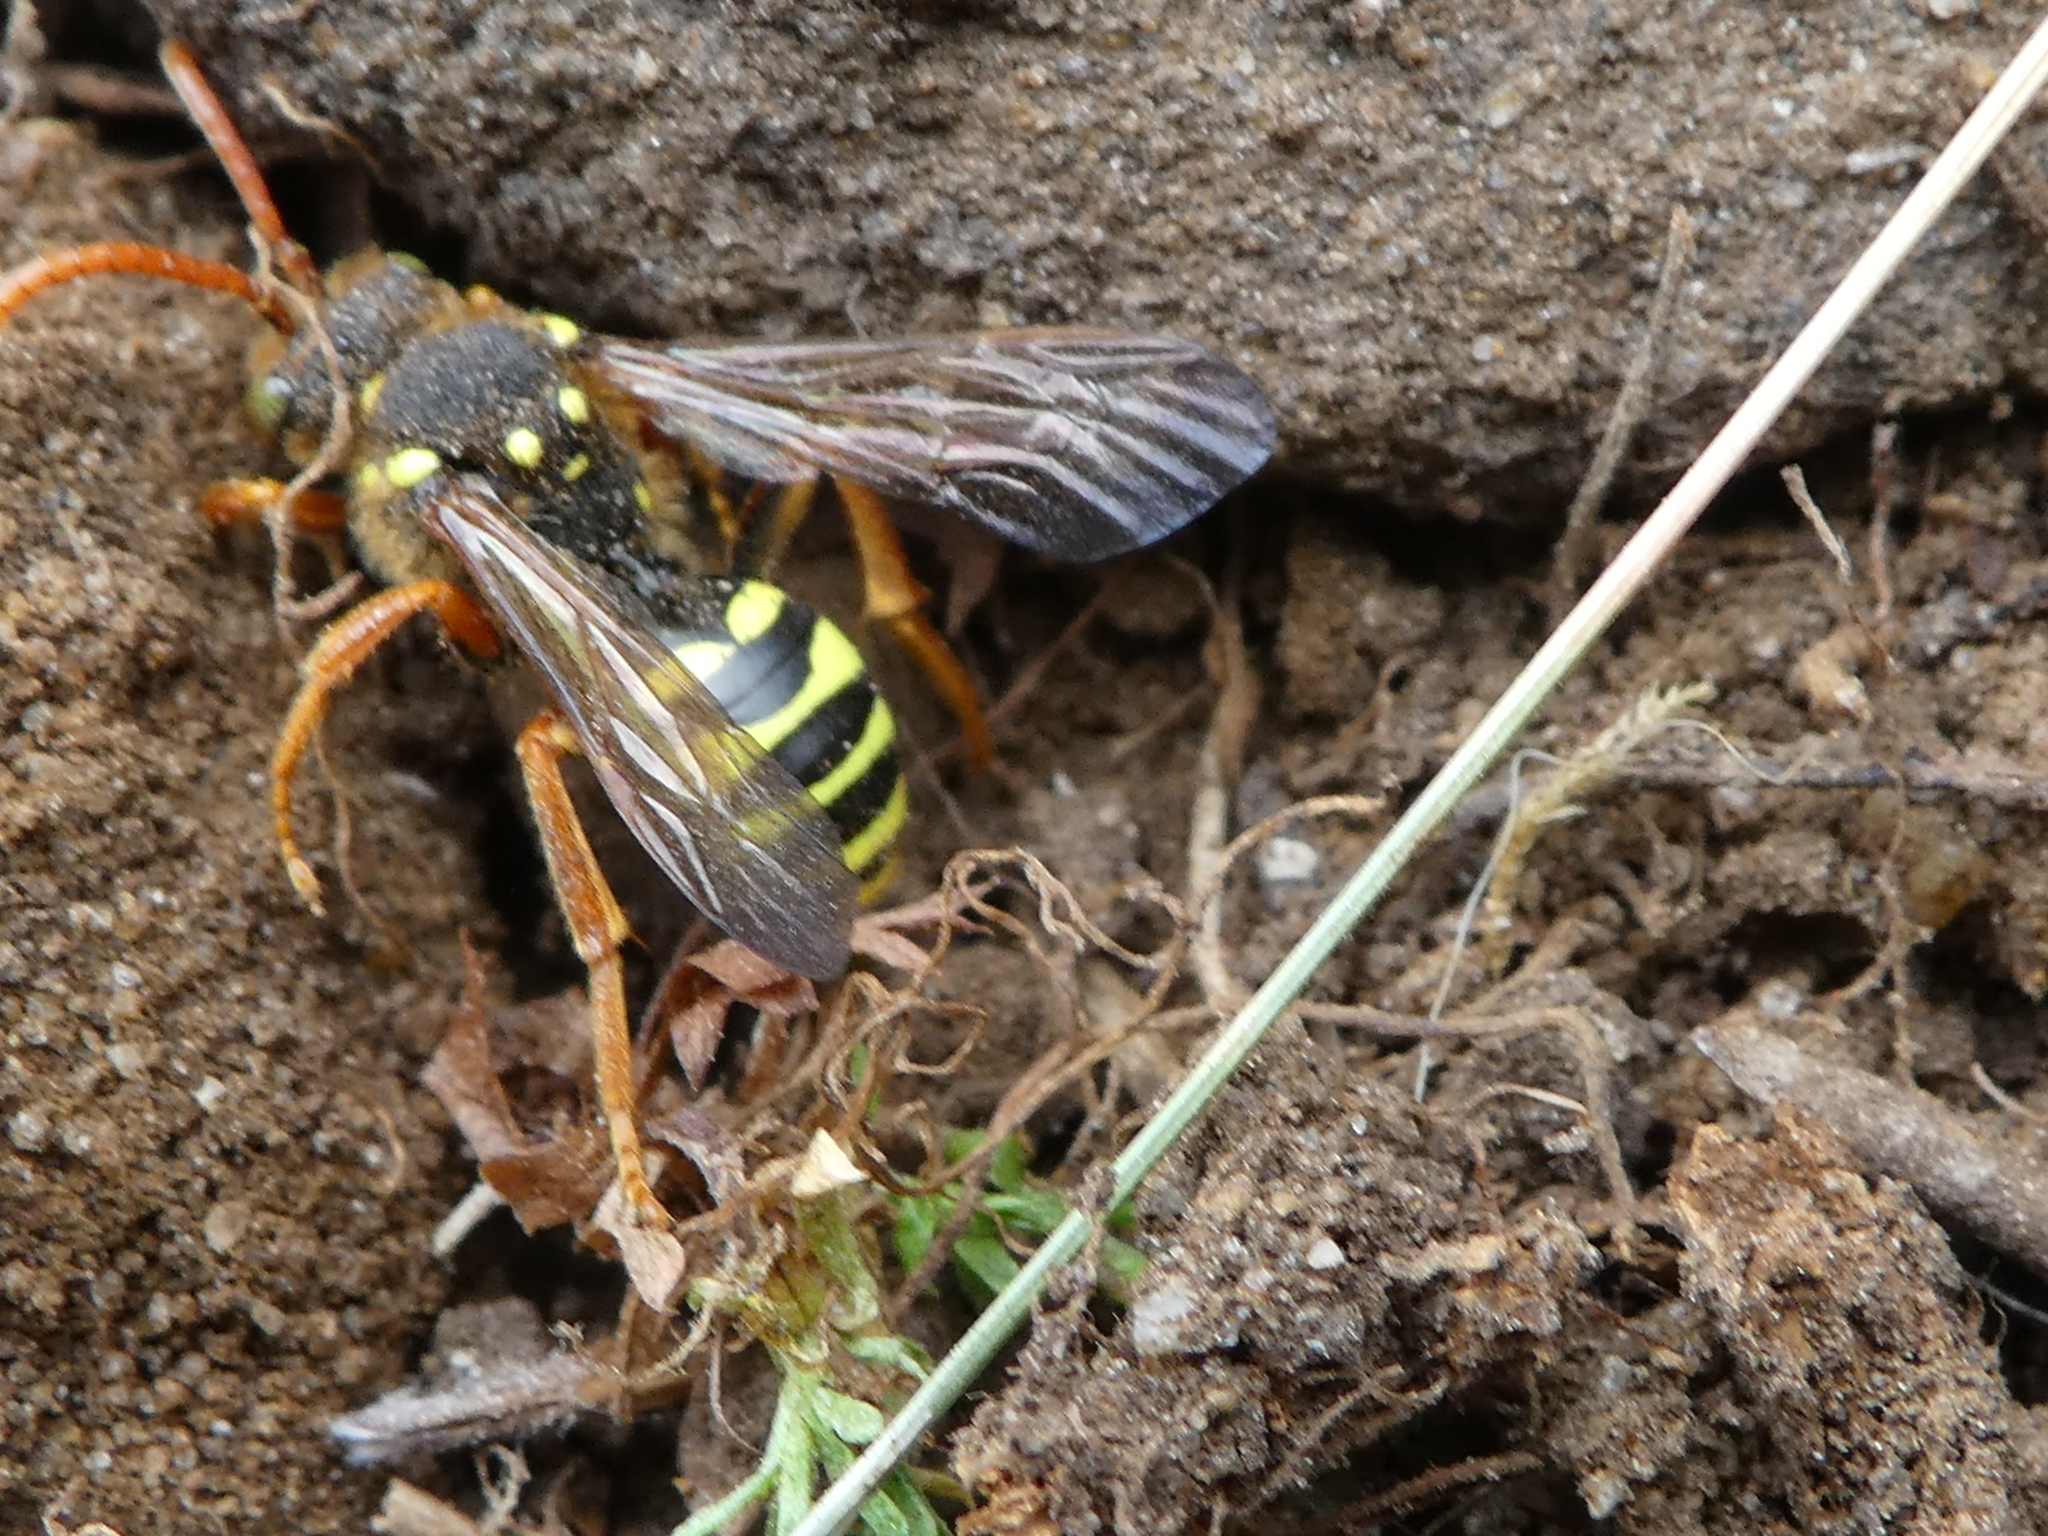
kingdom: Animalia
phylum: Arthropoda
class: Insecta
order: Hymenoptera
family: Apidae
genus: Nomada
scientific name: Nomada goodeniana
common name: Gooden's nomad bee
